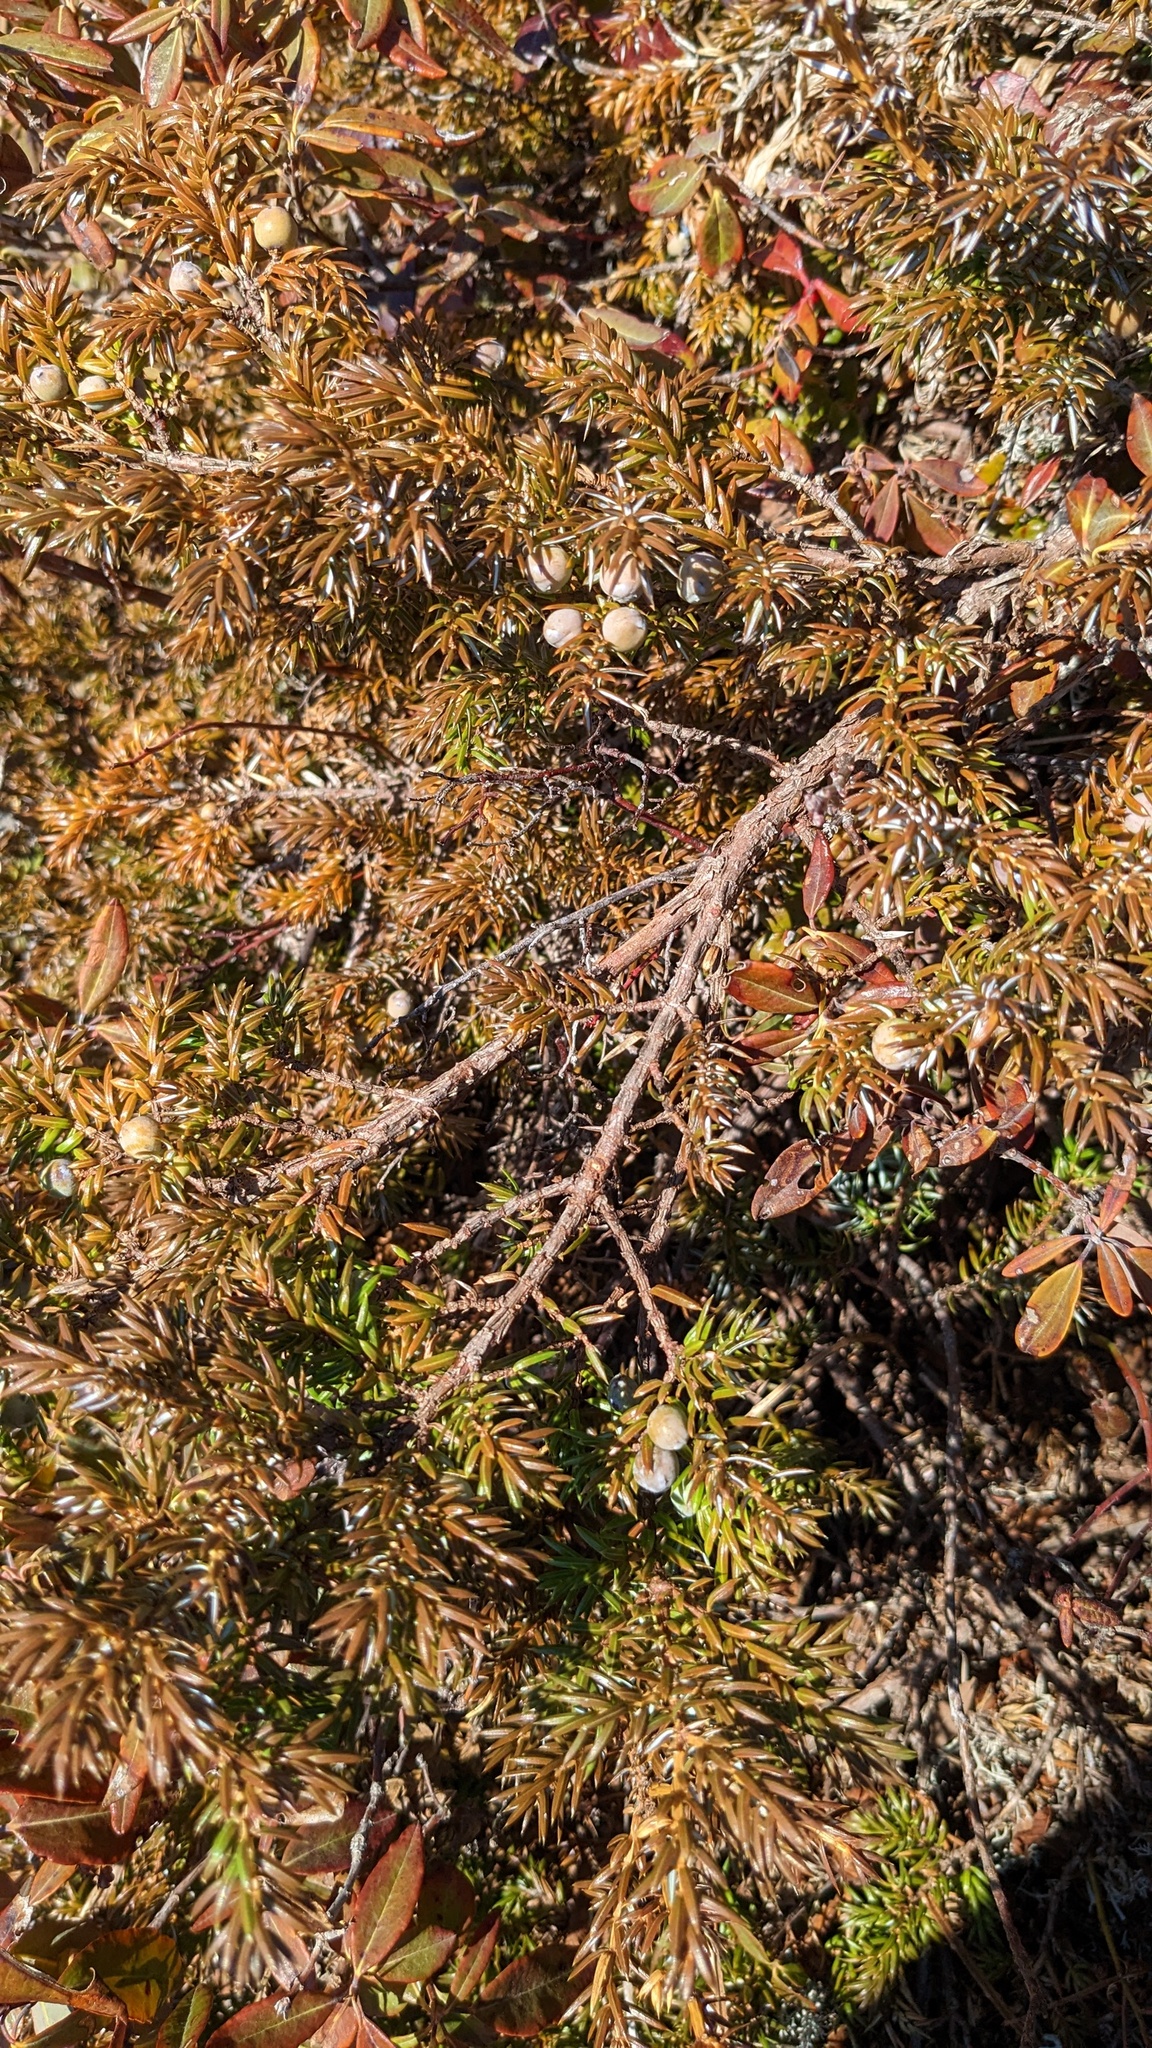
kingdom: Plantae
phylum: Tracheophyta
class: Pinopsida
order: Pinales
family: Cupressaceae
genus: Juniperus
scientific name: Juniperus communis
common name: Common juniper
